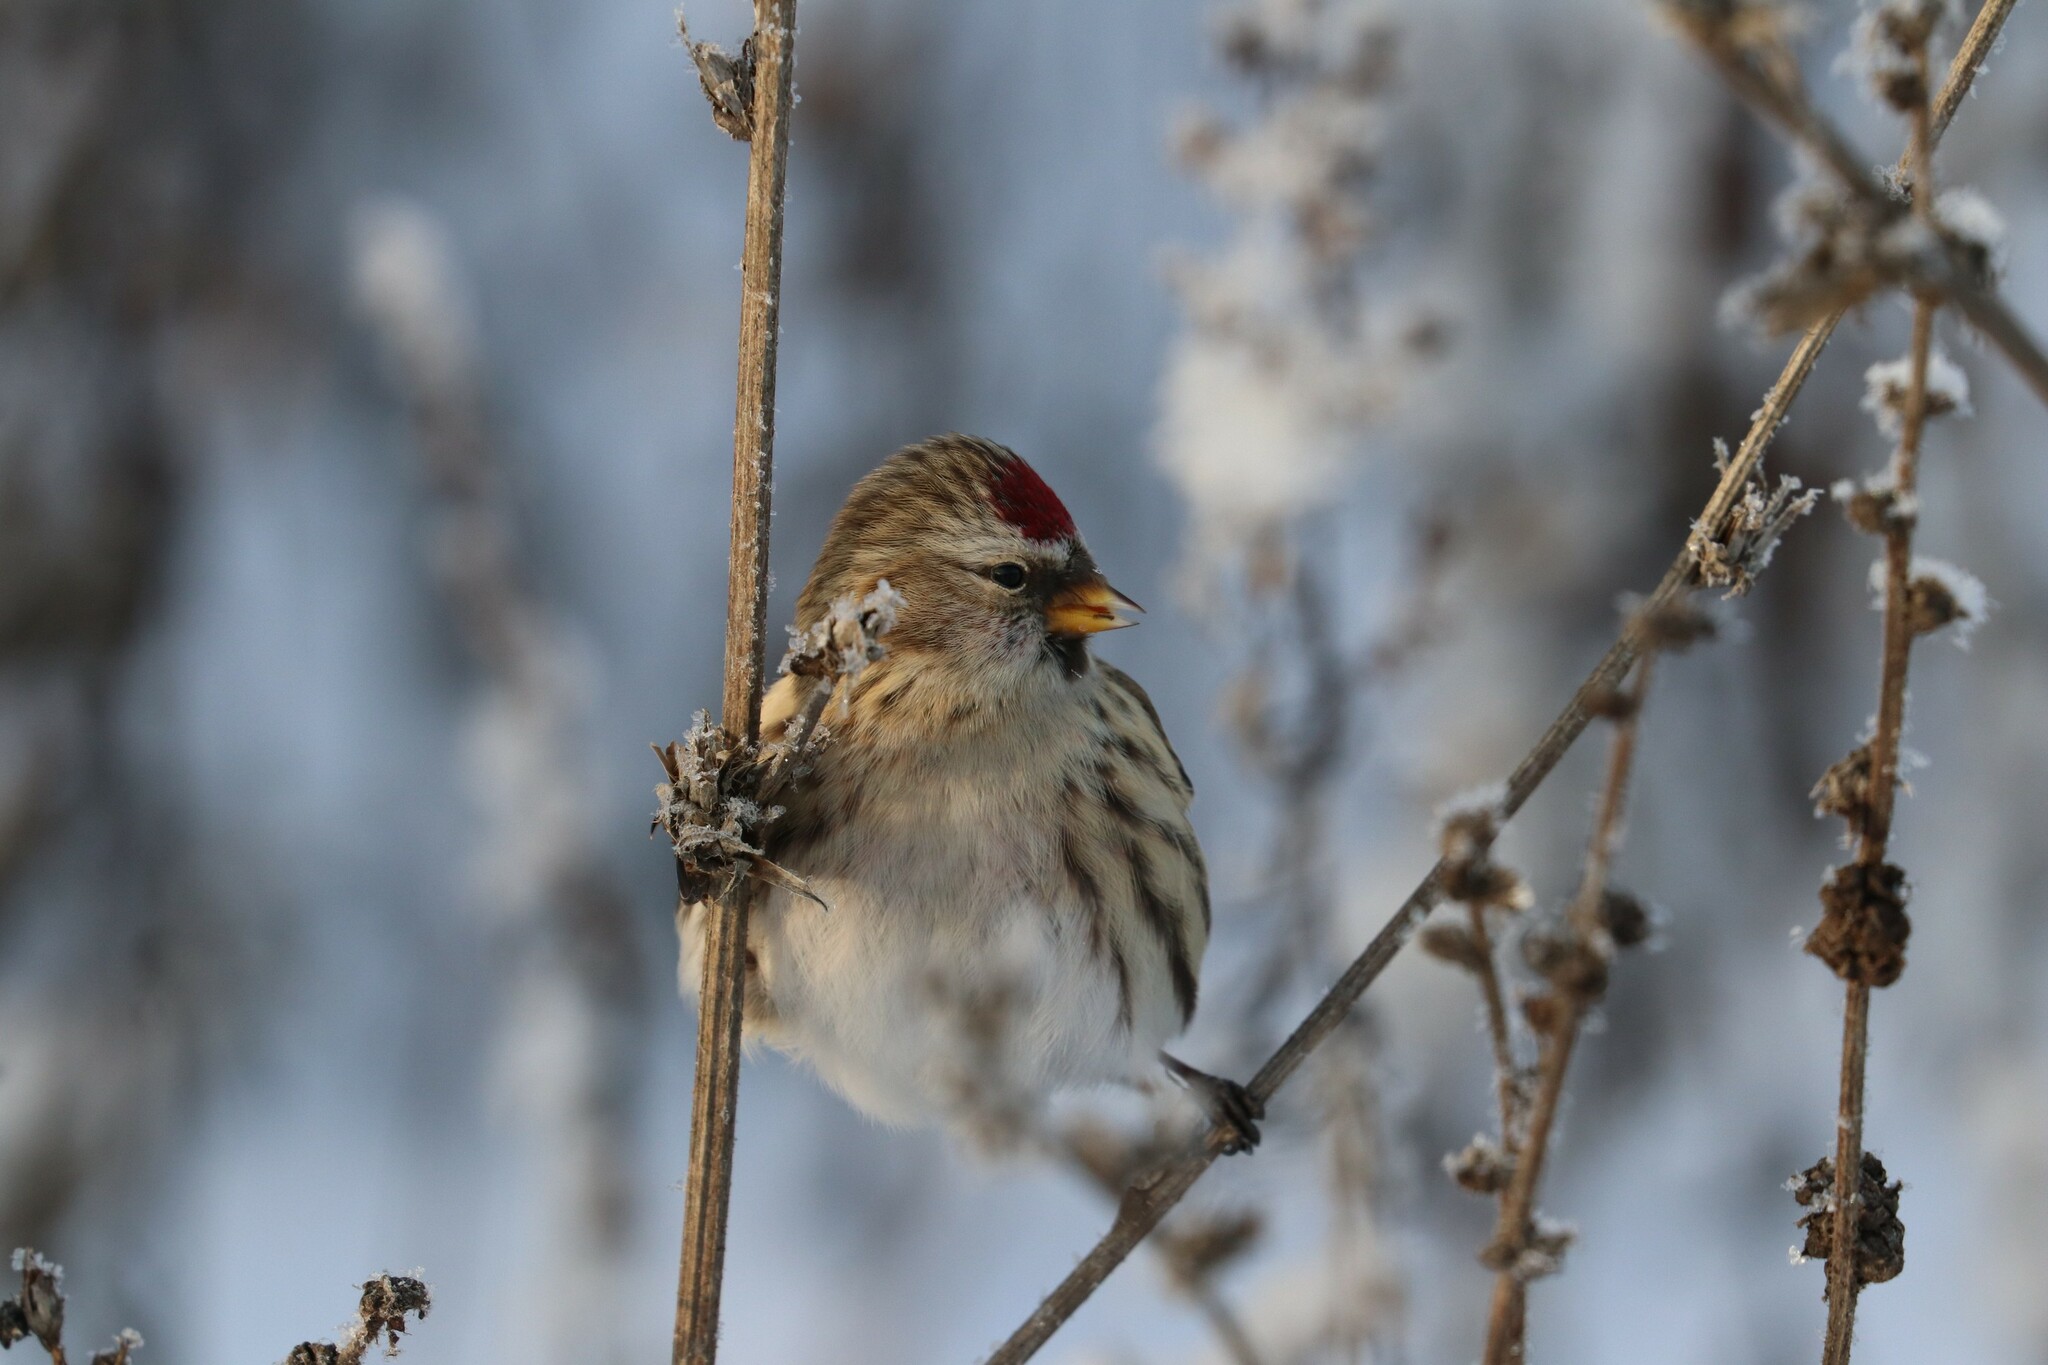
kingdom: Animalia
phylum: Chordata
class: Aves
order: Passeriformes
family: Fringillidae
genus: Acanthis
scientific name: Acanthis flammea
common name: Common redpoll
